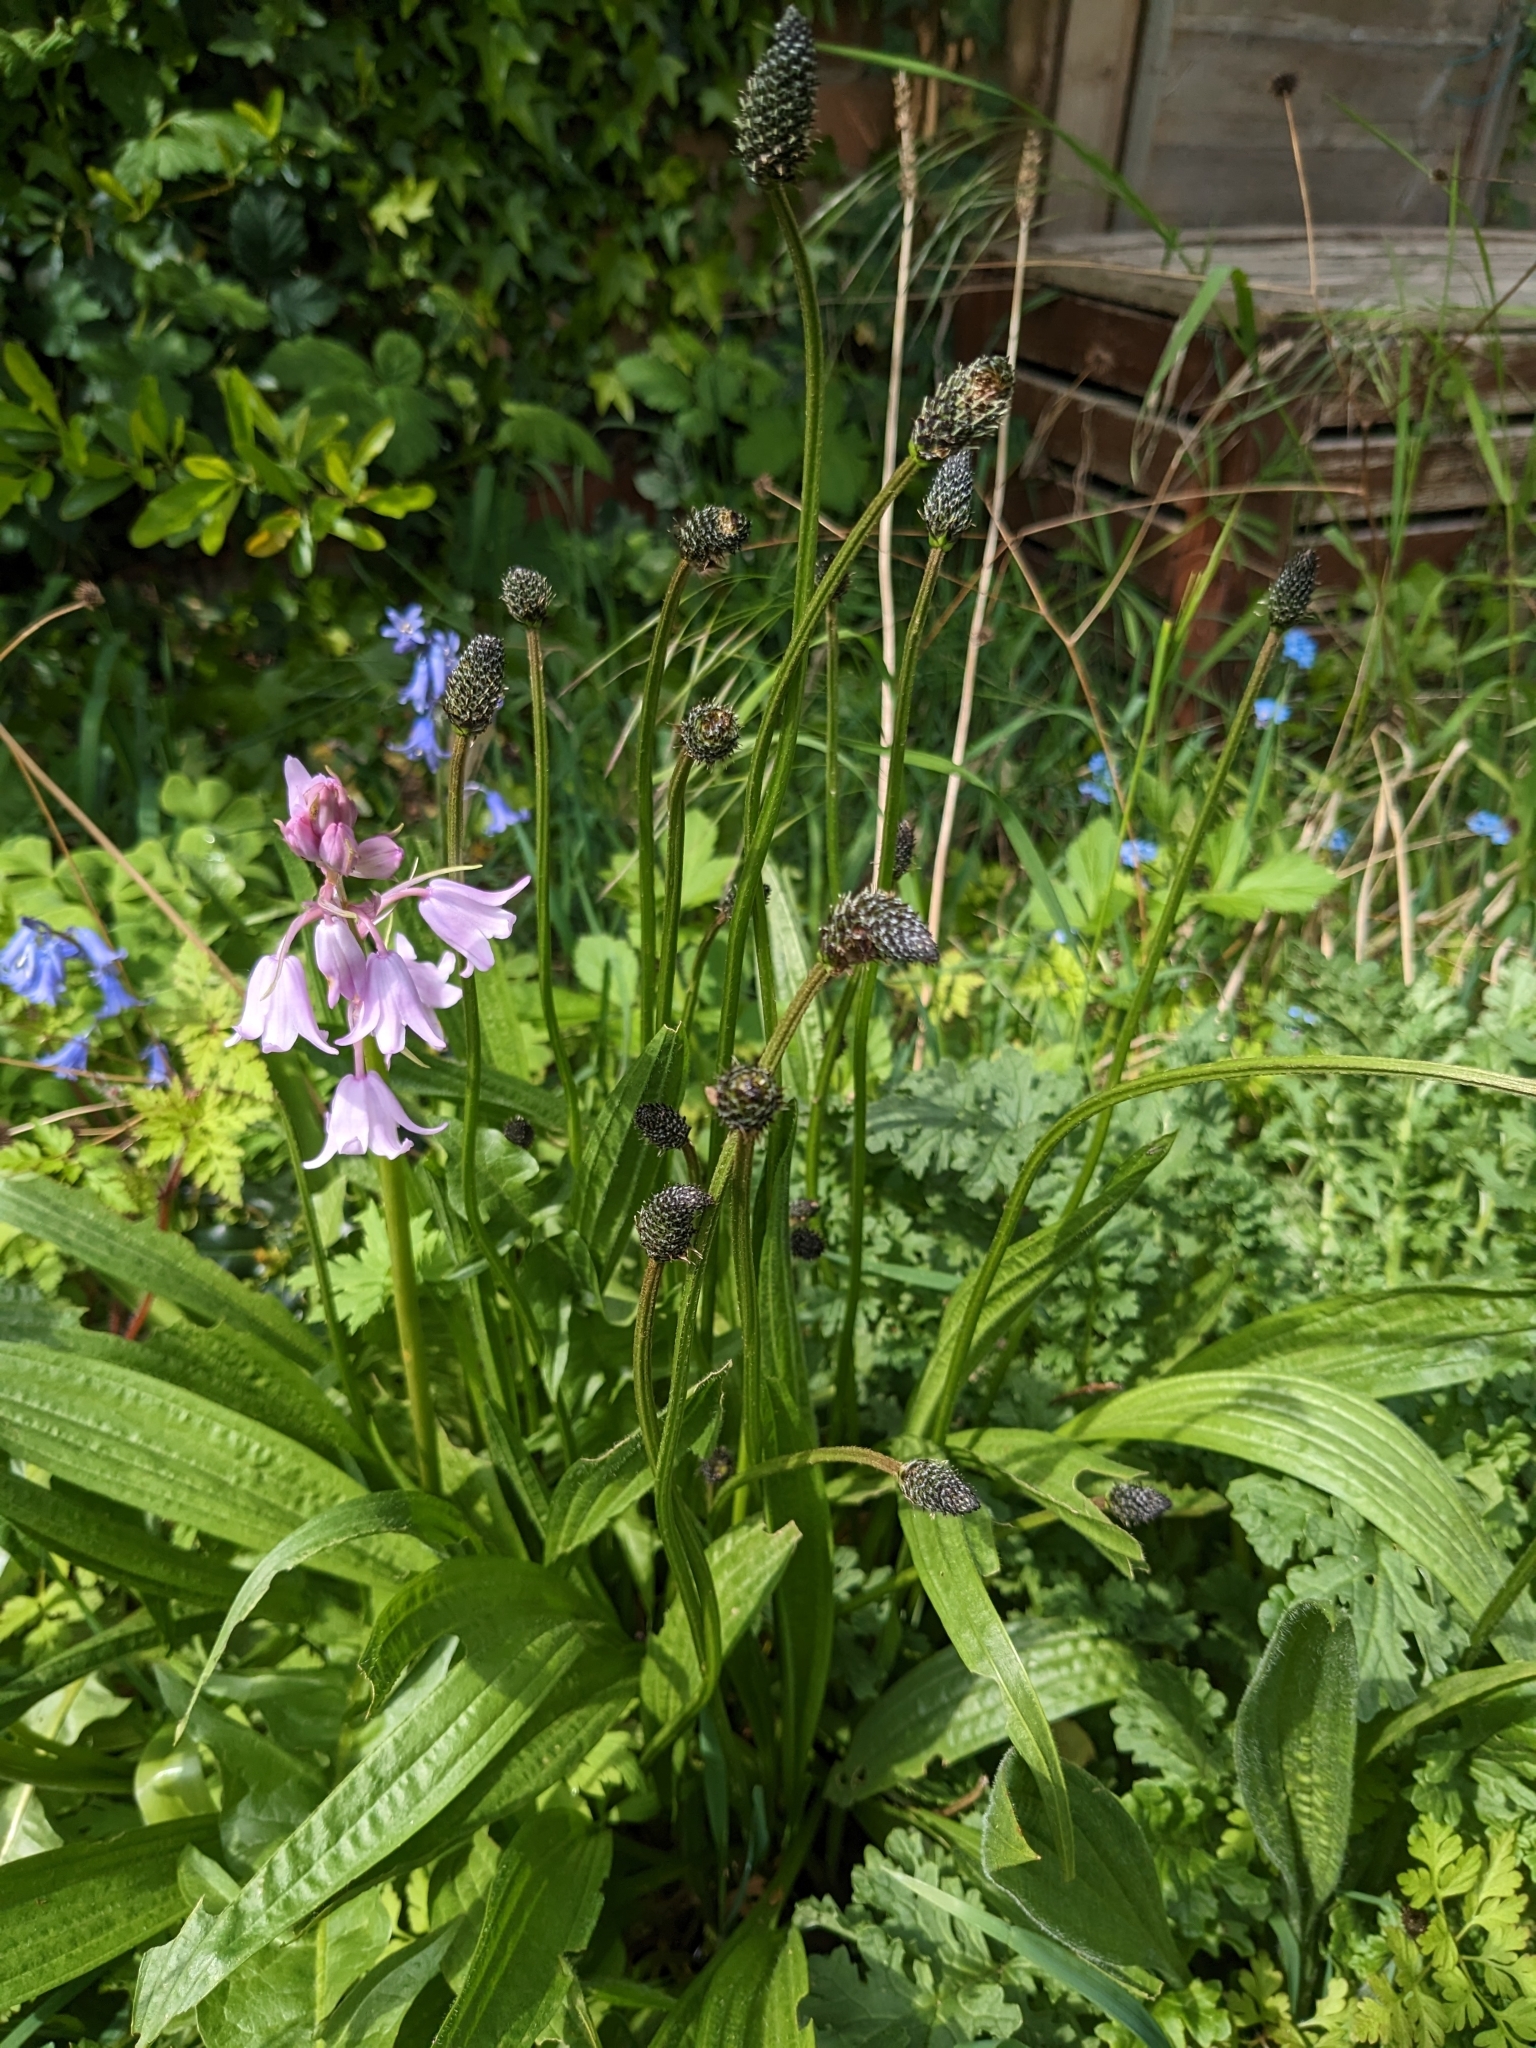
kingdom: Plantae
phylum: Tracheophyta
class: Magnoliopsida
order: Lamiales
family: Plantaginaceae
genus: Plantago
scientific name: Plantago lanceolata
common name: Ribwort plantain
